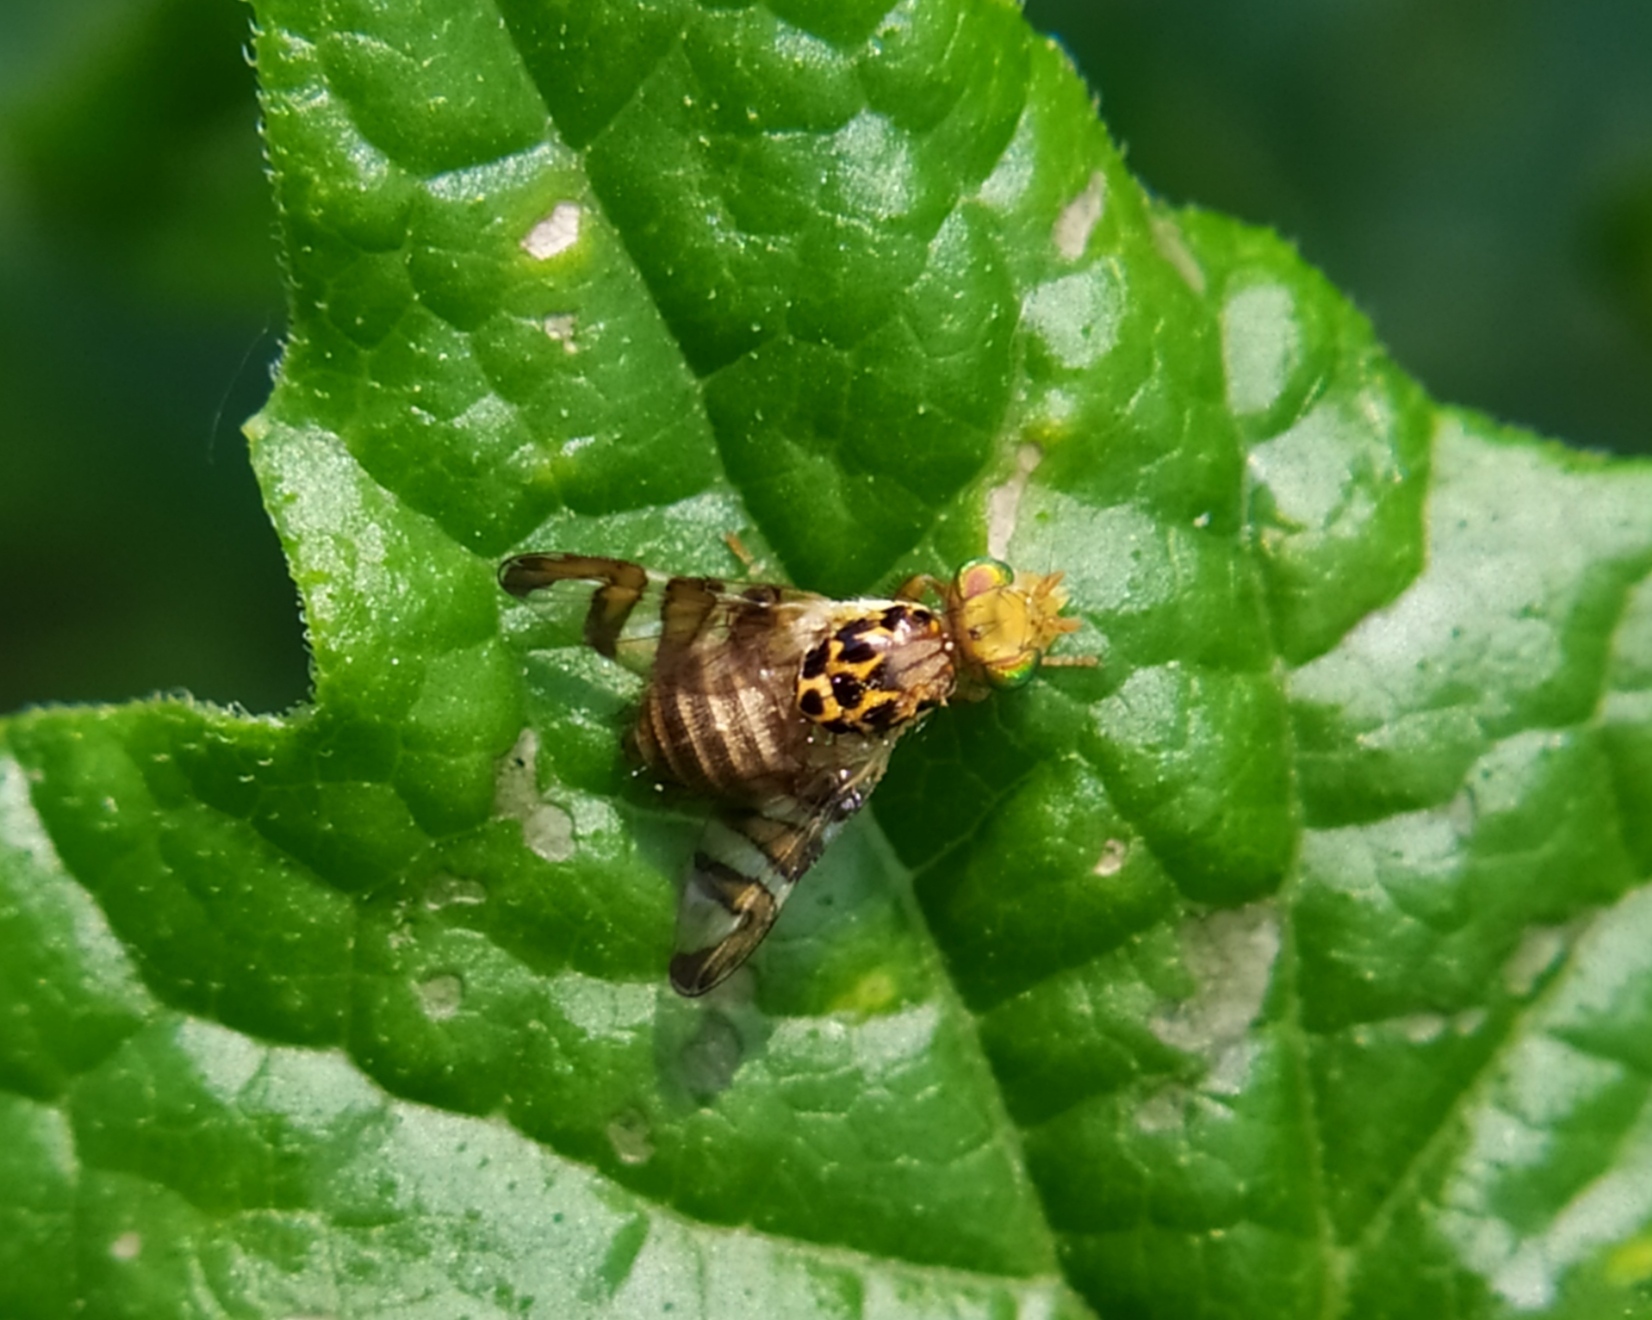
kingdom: Animalia
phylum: Arthropoda
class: Insecta
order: Diptera
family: Tephritidae
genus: Carpomya
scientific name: Carpomya wiedemanni
